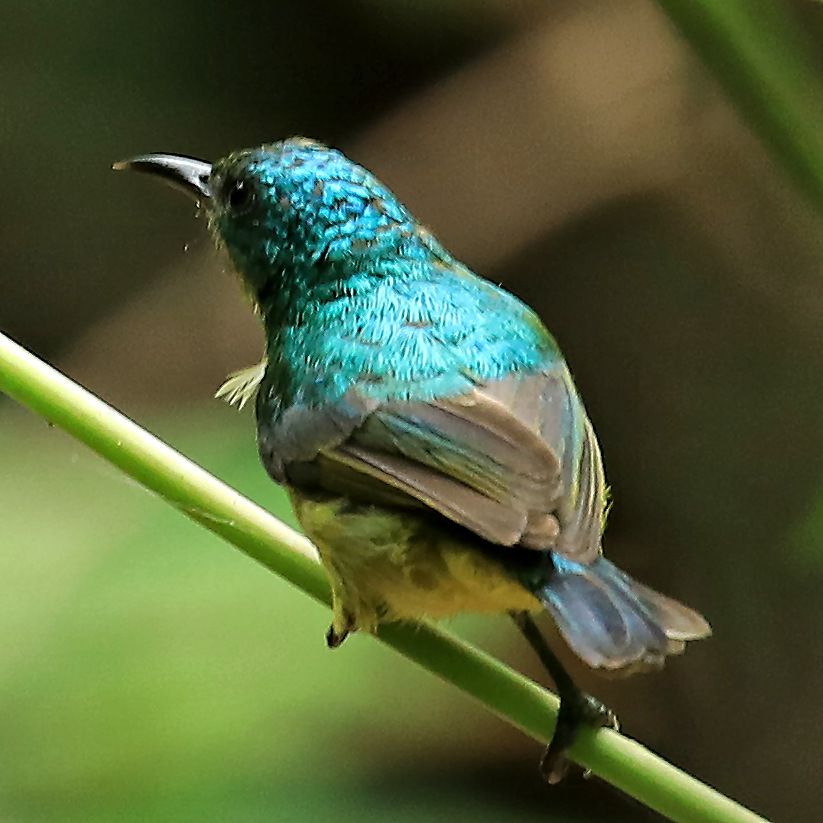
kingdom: Animalia
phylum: Chordata
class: Aves
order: Passeriformes
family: Nectariniidae
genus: Hedydipna
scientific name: Hedydipna collaris
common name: Collared sunbird
